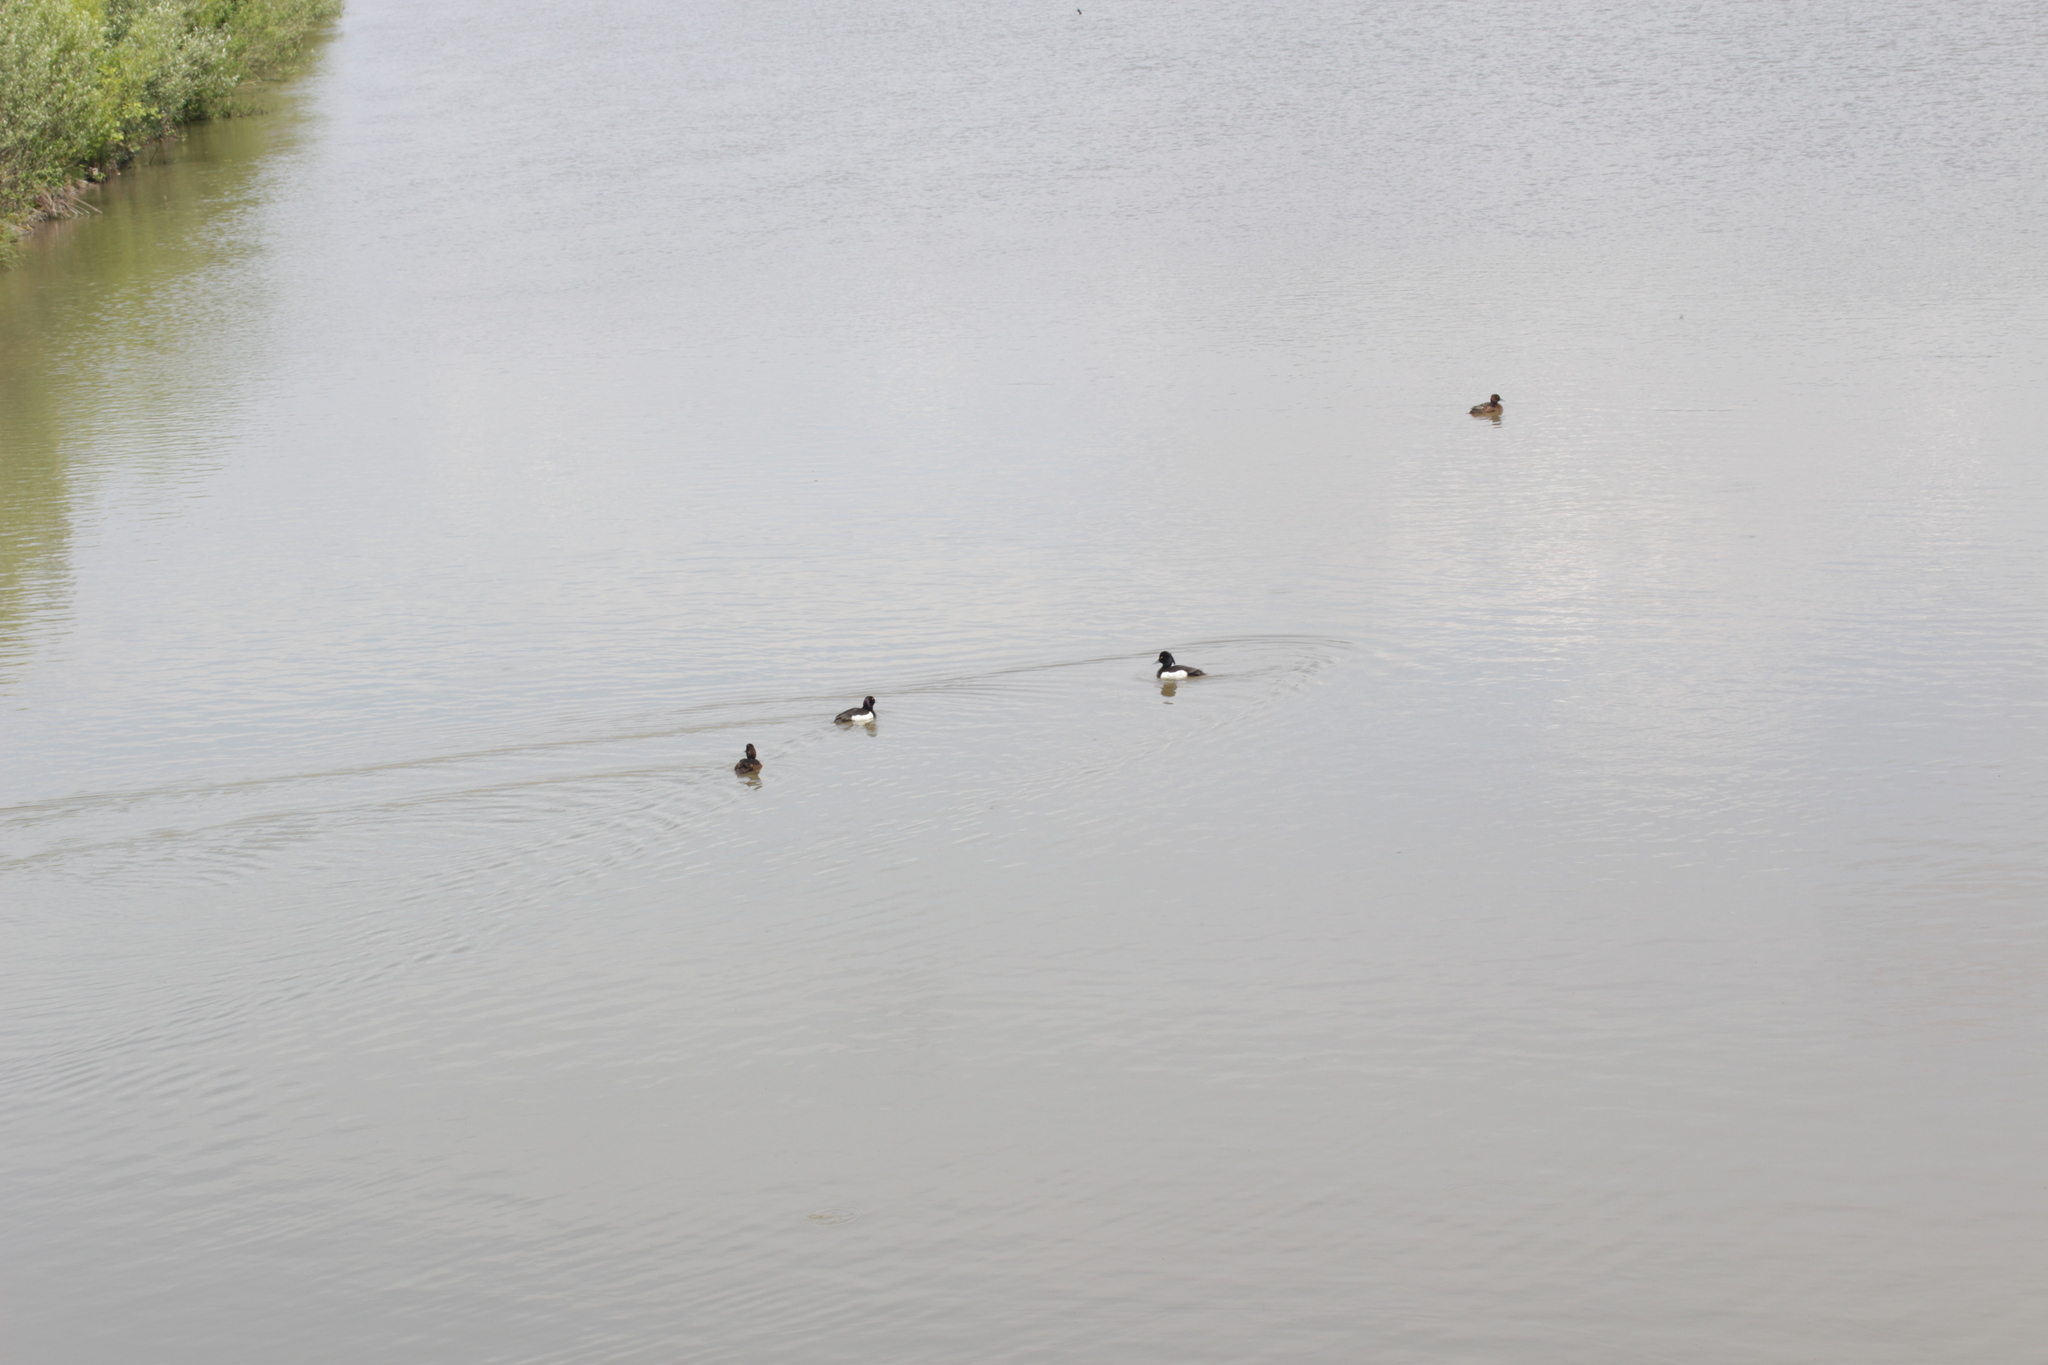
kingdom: Animalia
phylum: Chordata
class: Aves
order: Anseriformes
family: Anatidae
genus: Aythya
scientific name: Aythya fuligula
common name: Tufted duck
